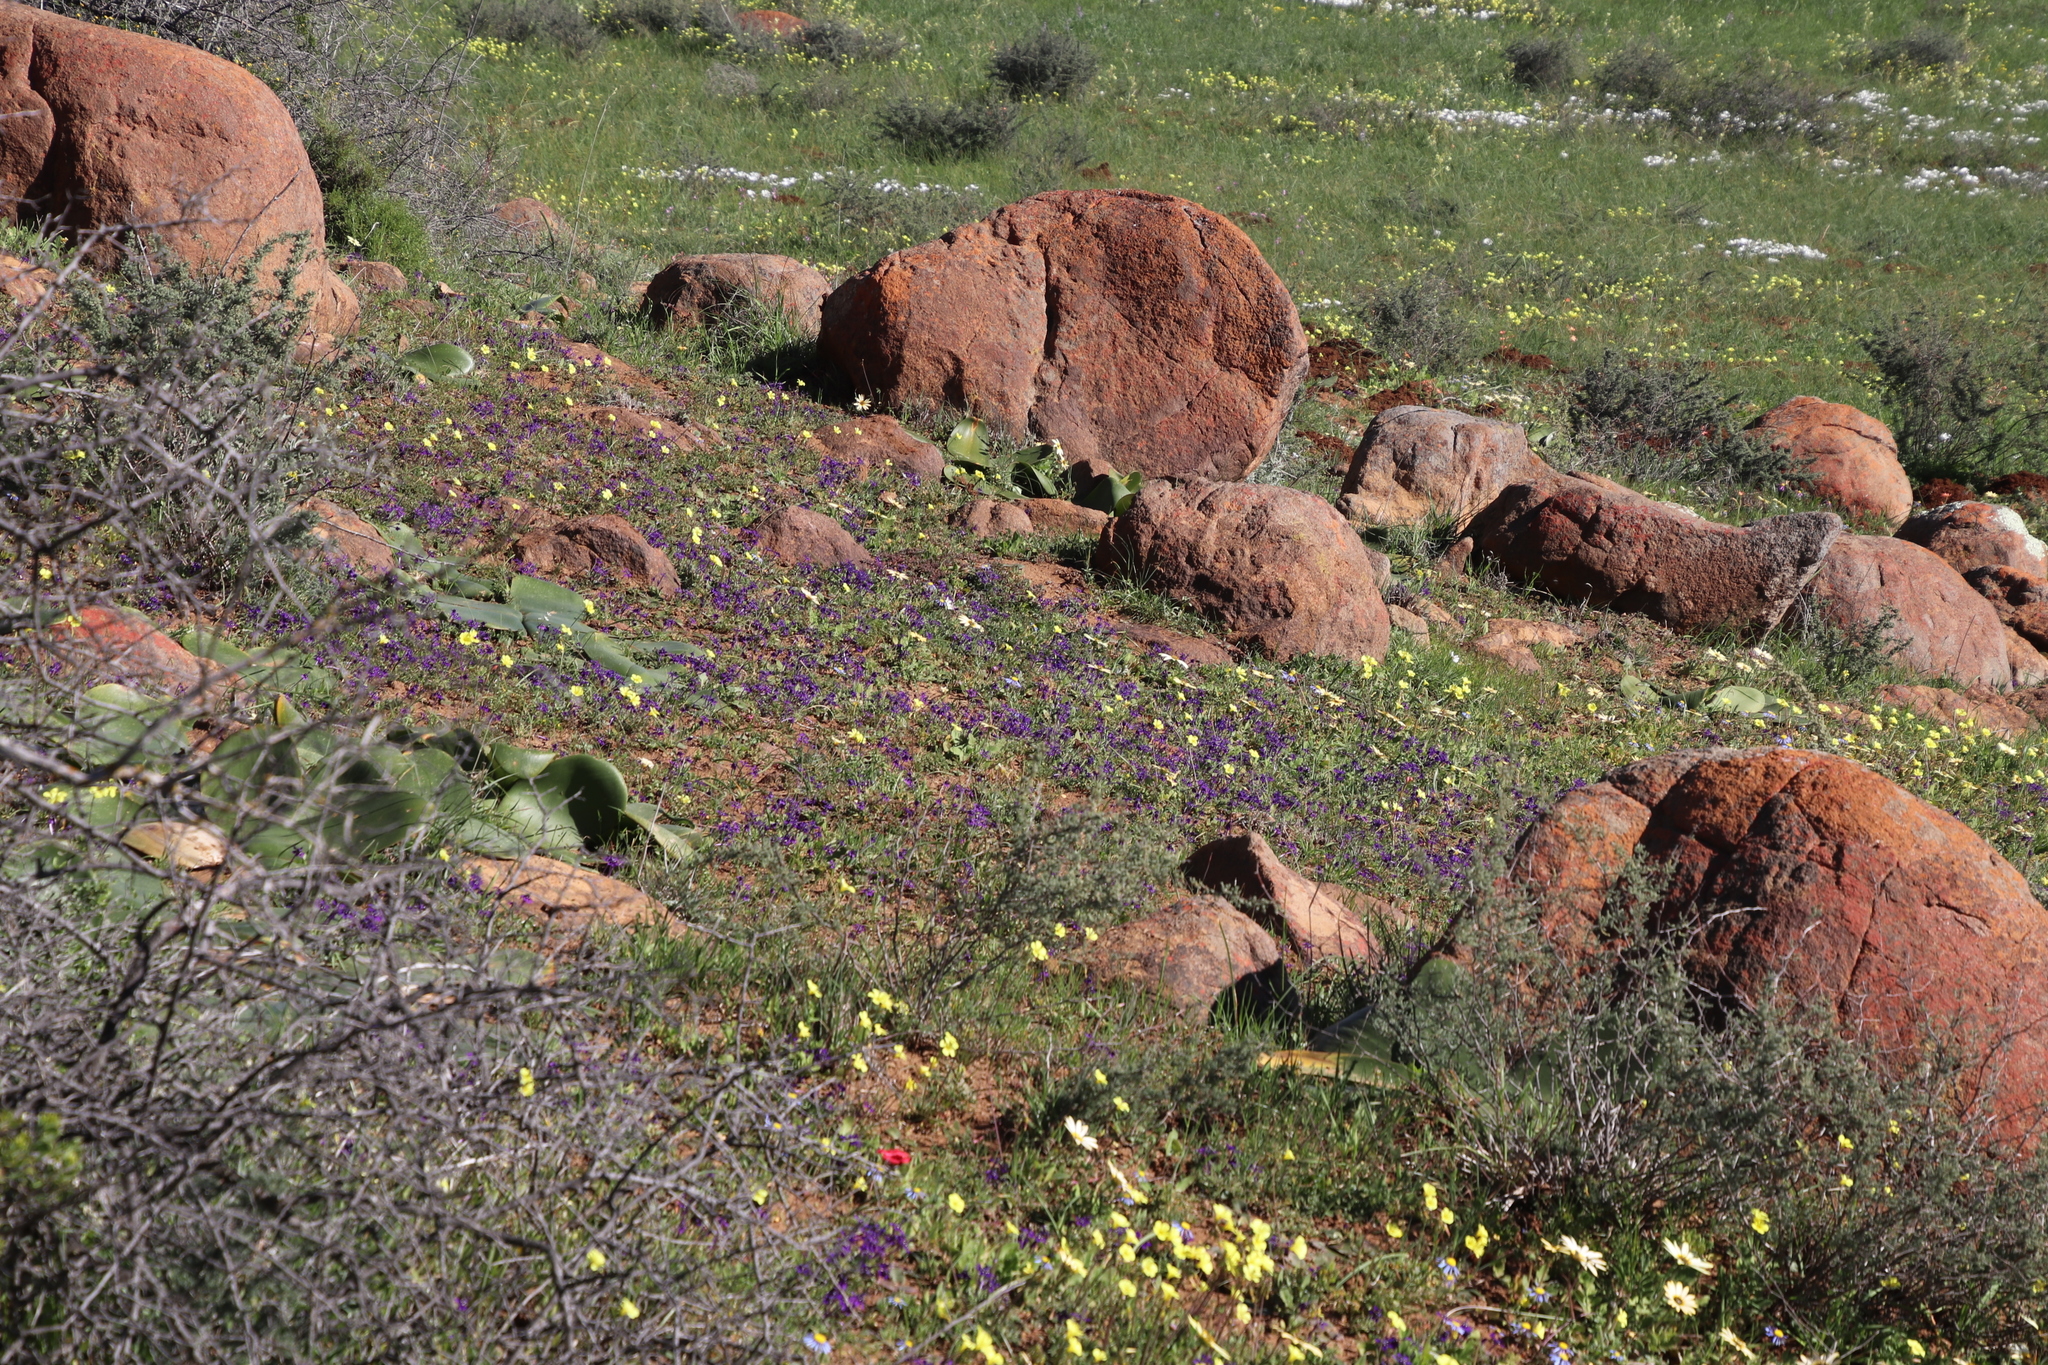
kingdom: Plantae
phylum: Tracheophyta
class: Liliopsida
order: Asparagales
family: Iridaceae
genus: Lapeirousia
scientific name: Lapeirousia oreogena
